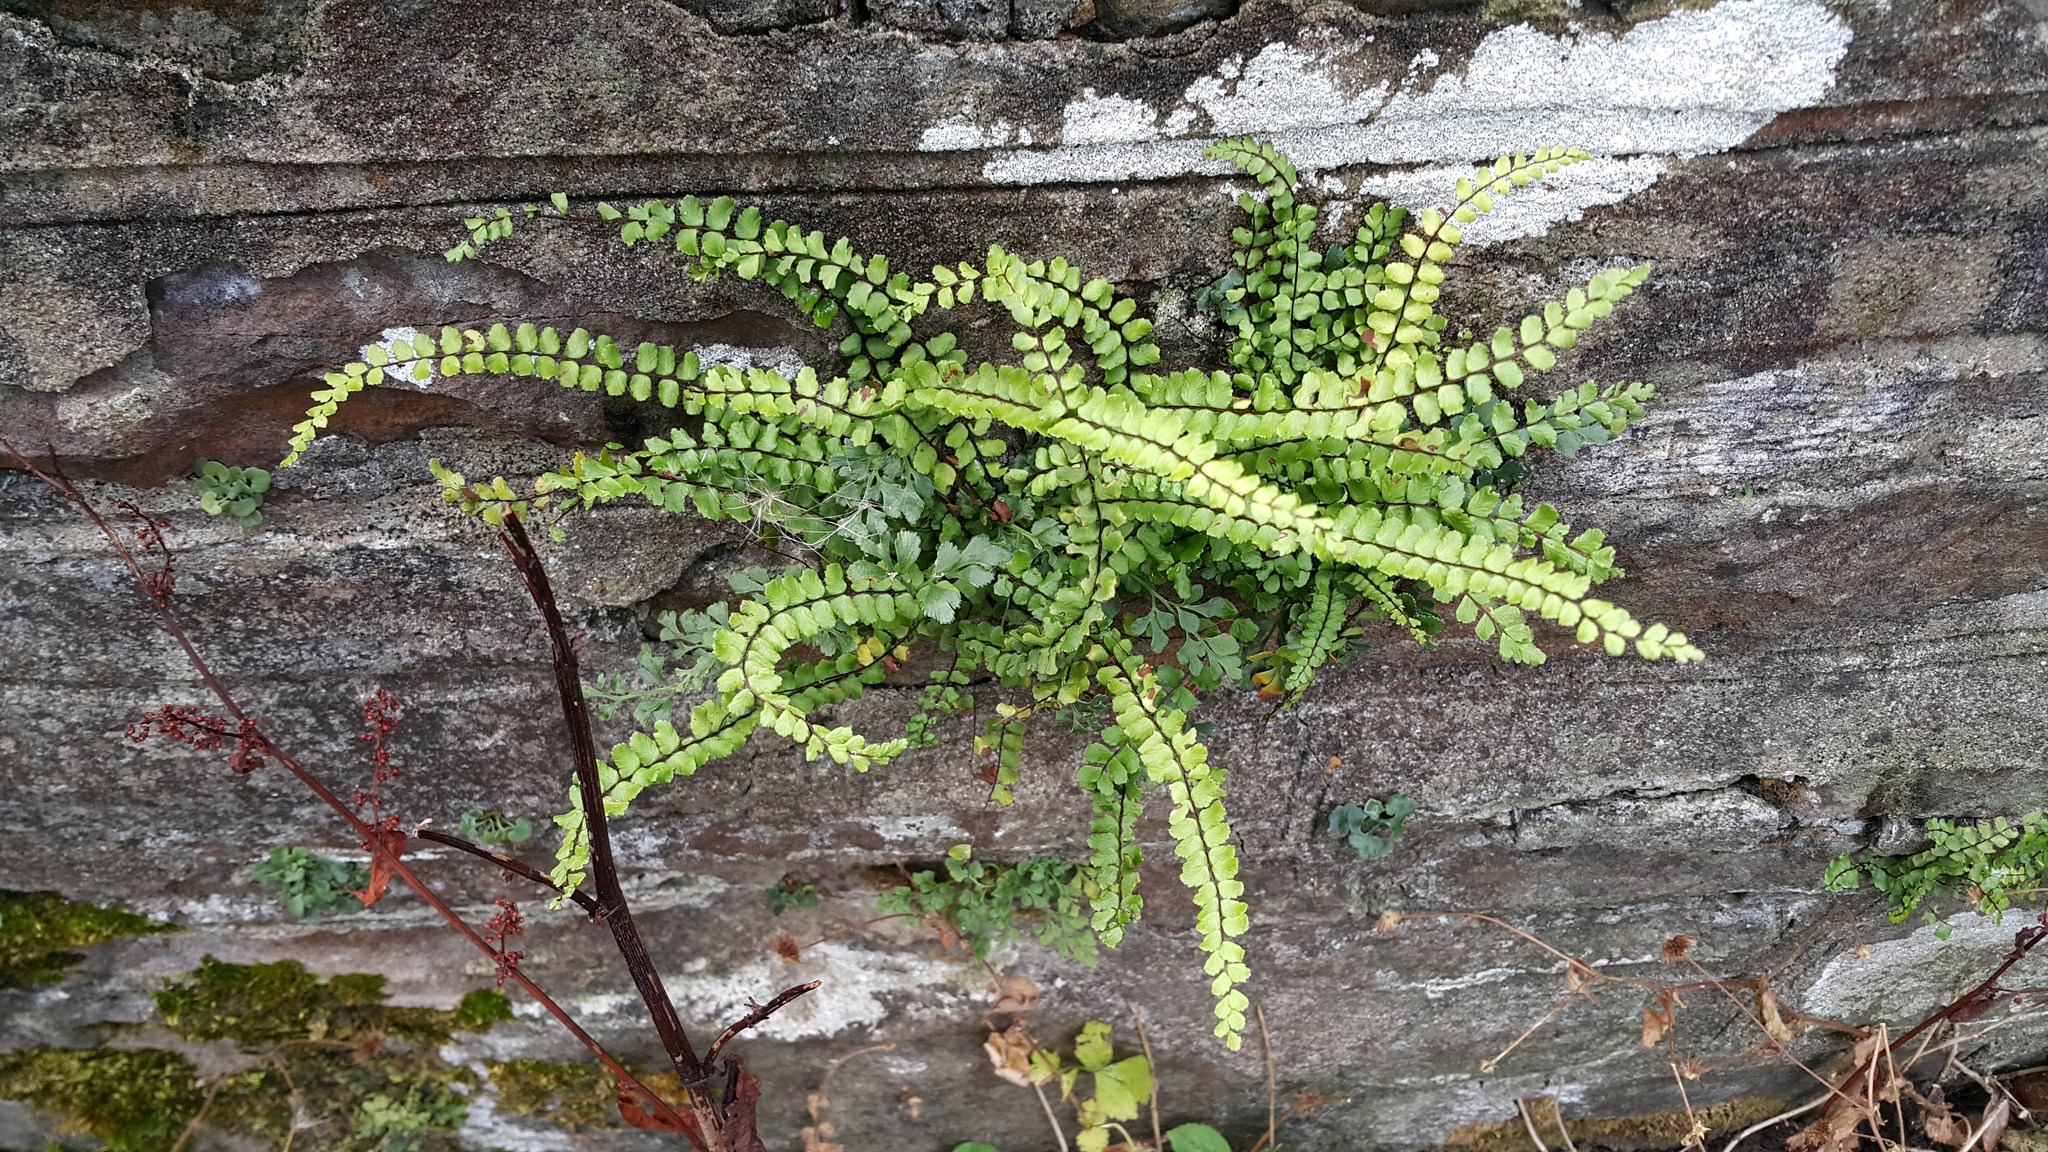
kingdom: Plantae
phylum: Tracheophyta
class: Polypodiopsida
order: Polypodiales
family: Aspleniaceae
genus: Asplenium
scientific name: Asplenium trichomanes
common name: Maidenhair spleenwort
